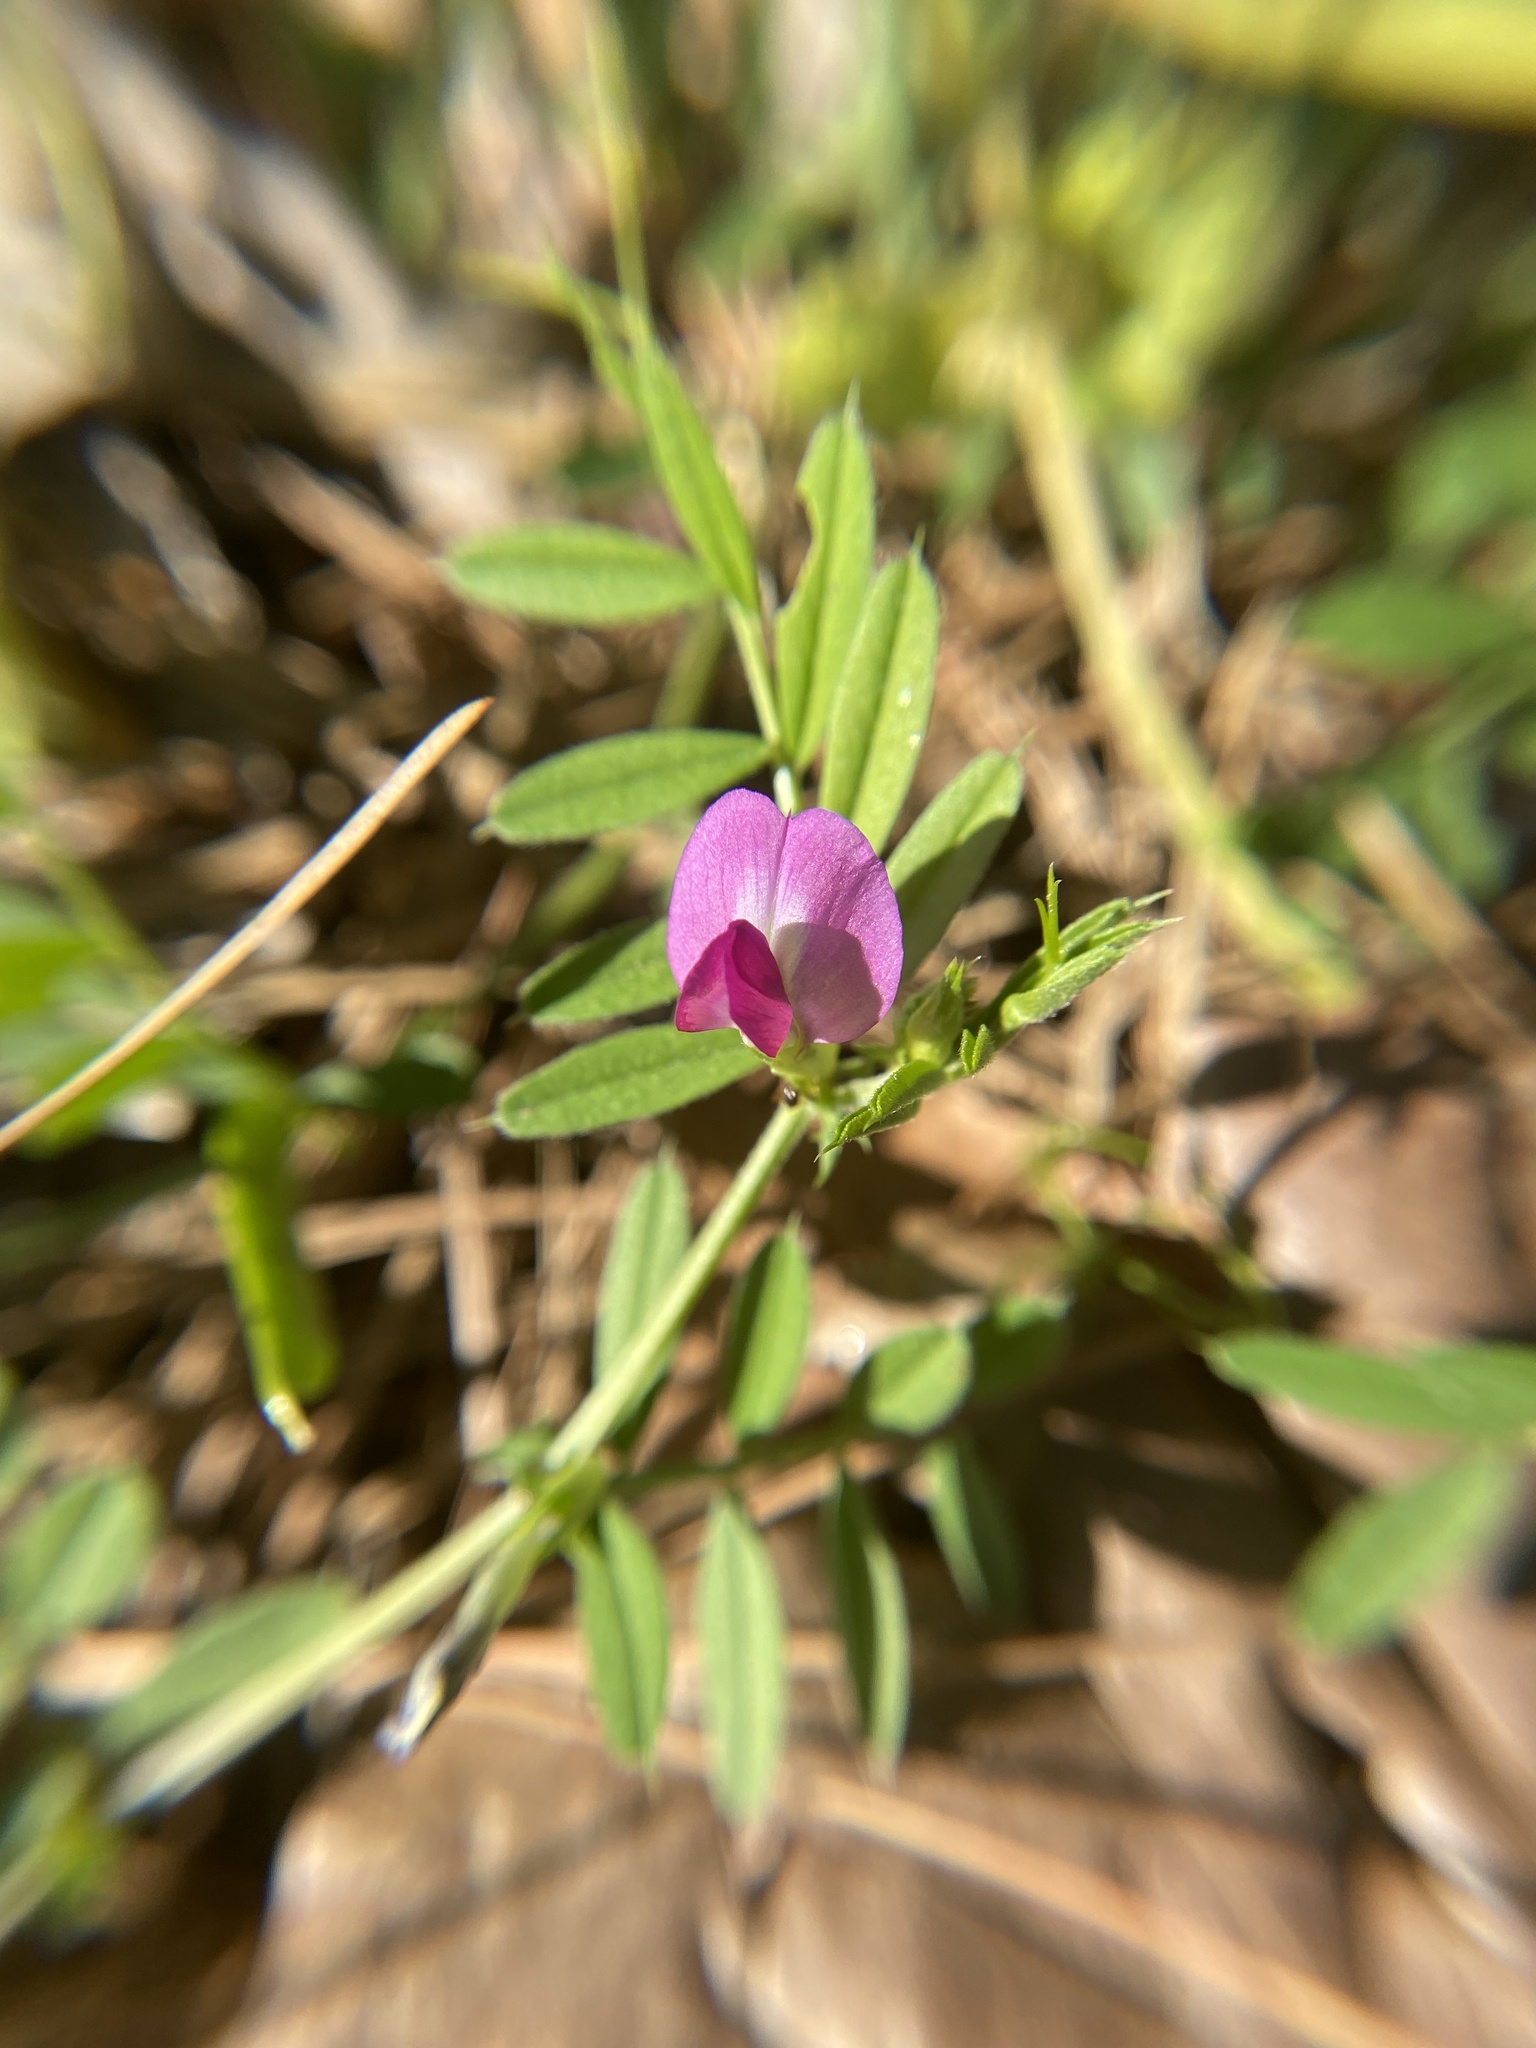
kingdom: Plantae
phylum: Tracheophyta
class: Magnoliopsida
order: Fabales
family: Fabaceae
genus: Vicia
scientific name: Vicia sativa
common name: Garden vetch
